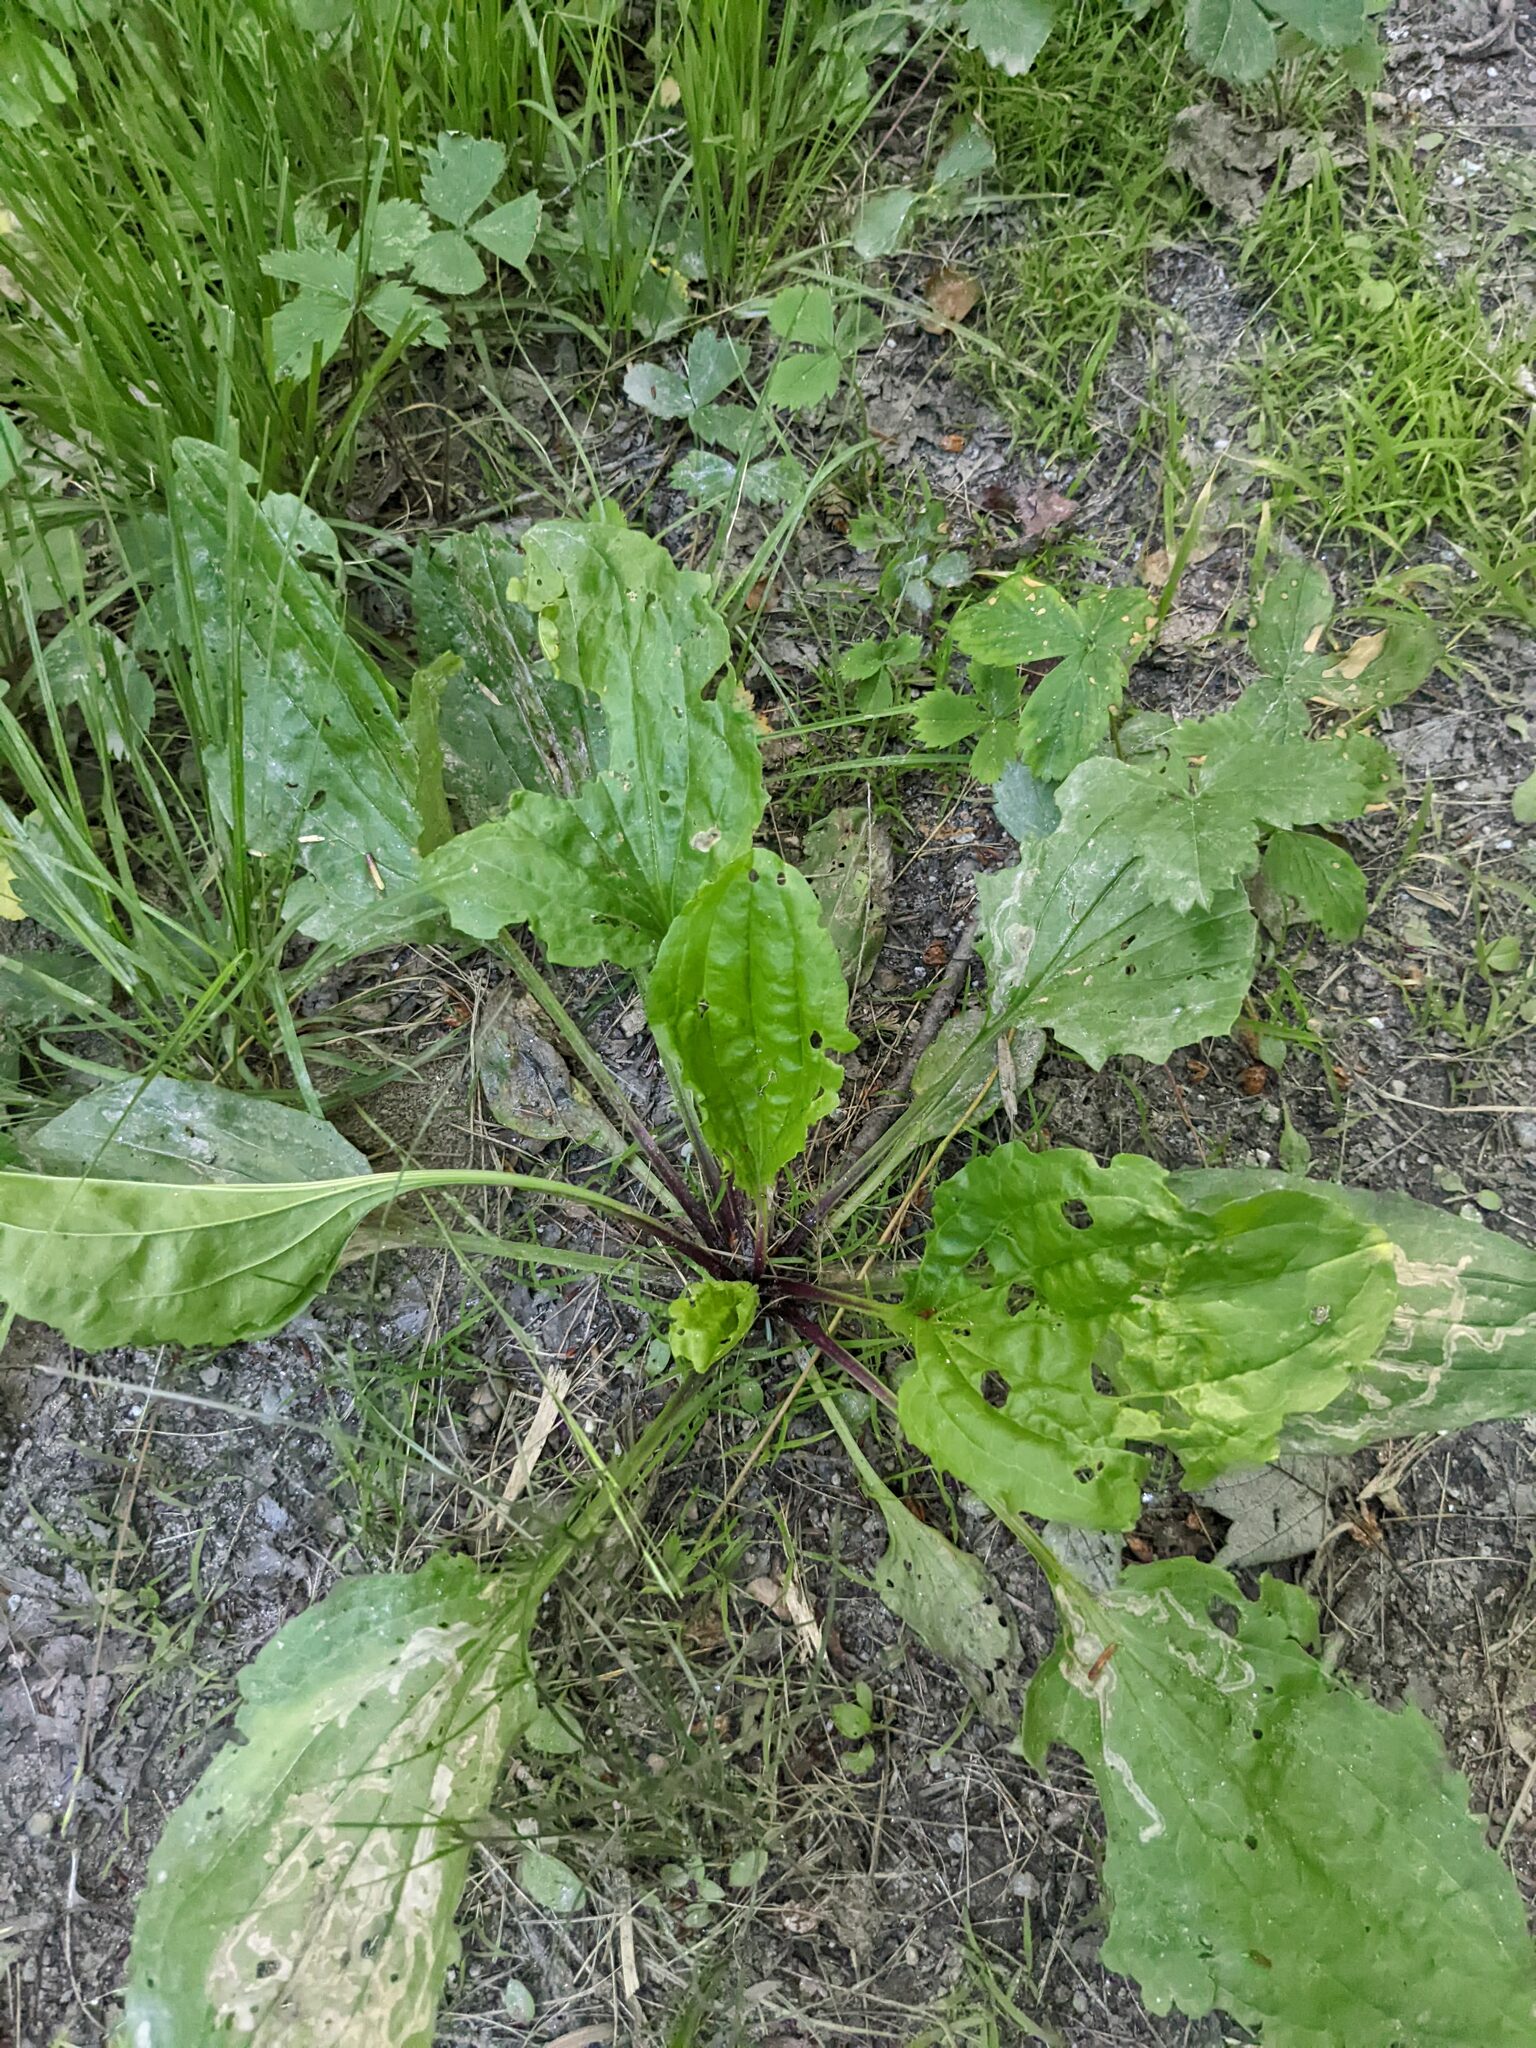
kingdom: Plantae
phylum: Tracheophyta
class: Magnoliopsida
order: Lamiales
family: Plantaginaceae
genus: Plantago
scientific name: Plantago rugelii
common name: American plantain
